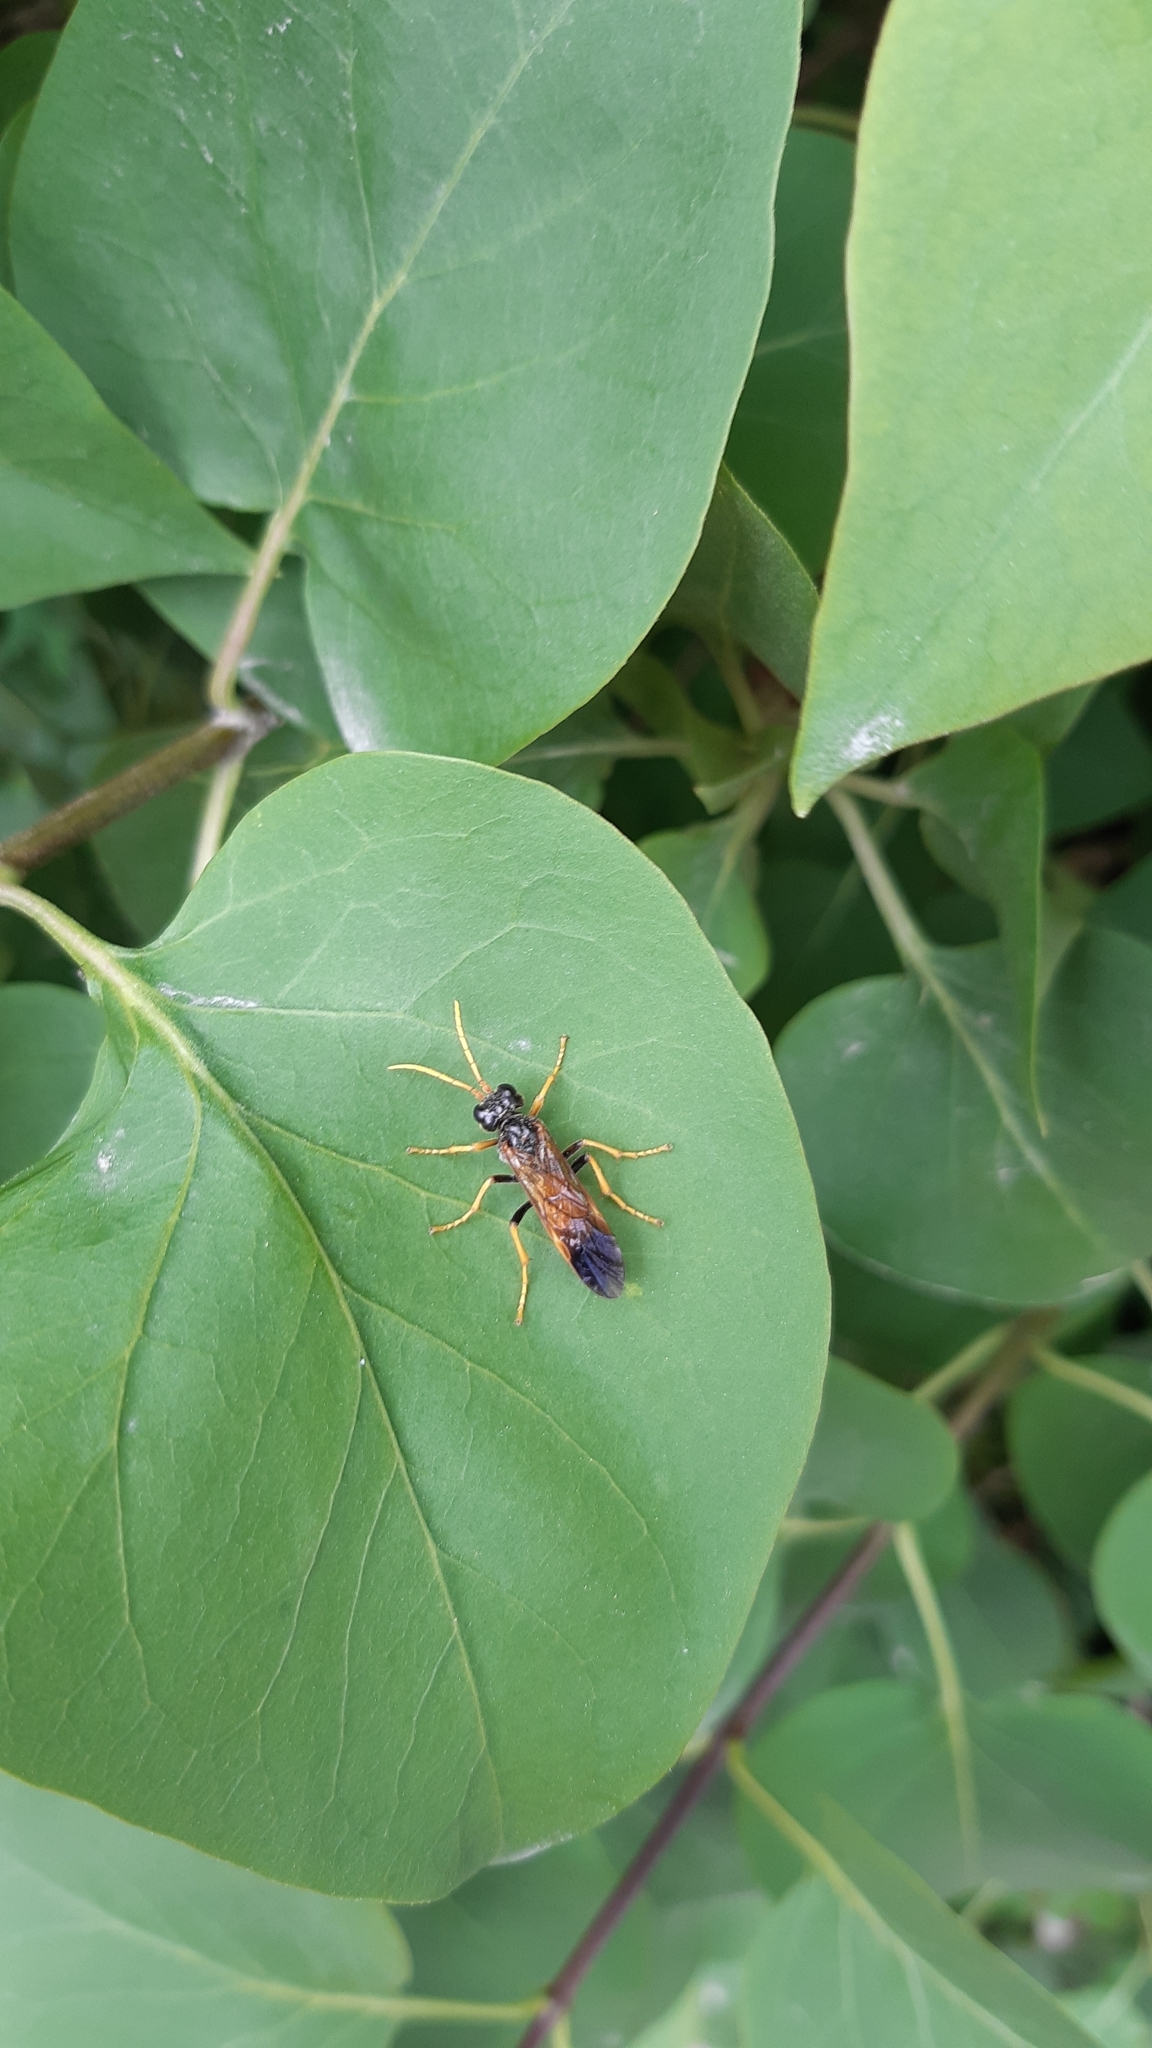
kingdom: Animalia
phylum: Arthropoda
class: Insecta
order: Hymenoptera
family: Tenthredinidae
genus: Tenthredo
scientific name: Tenthredo campestris
